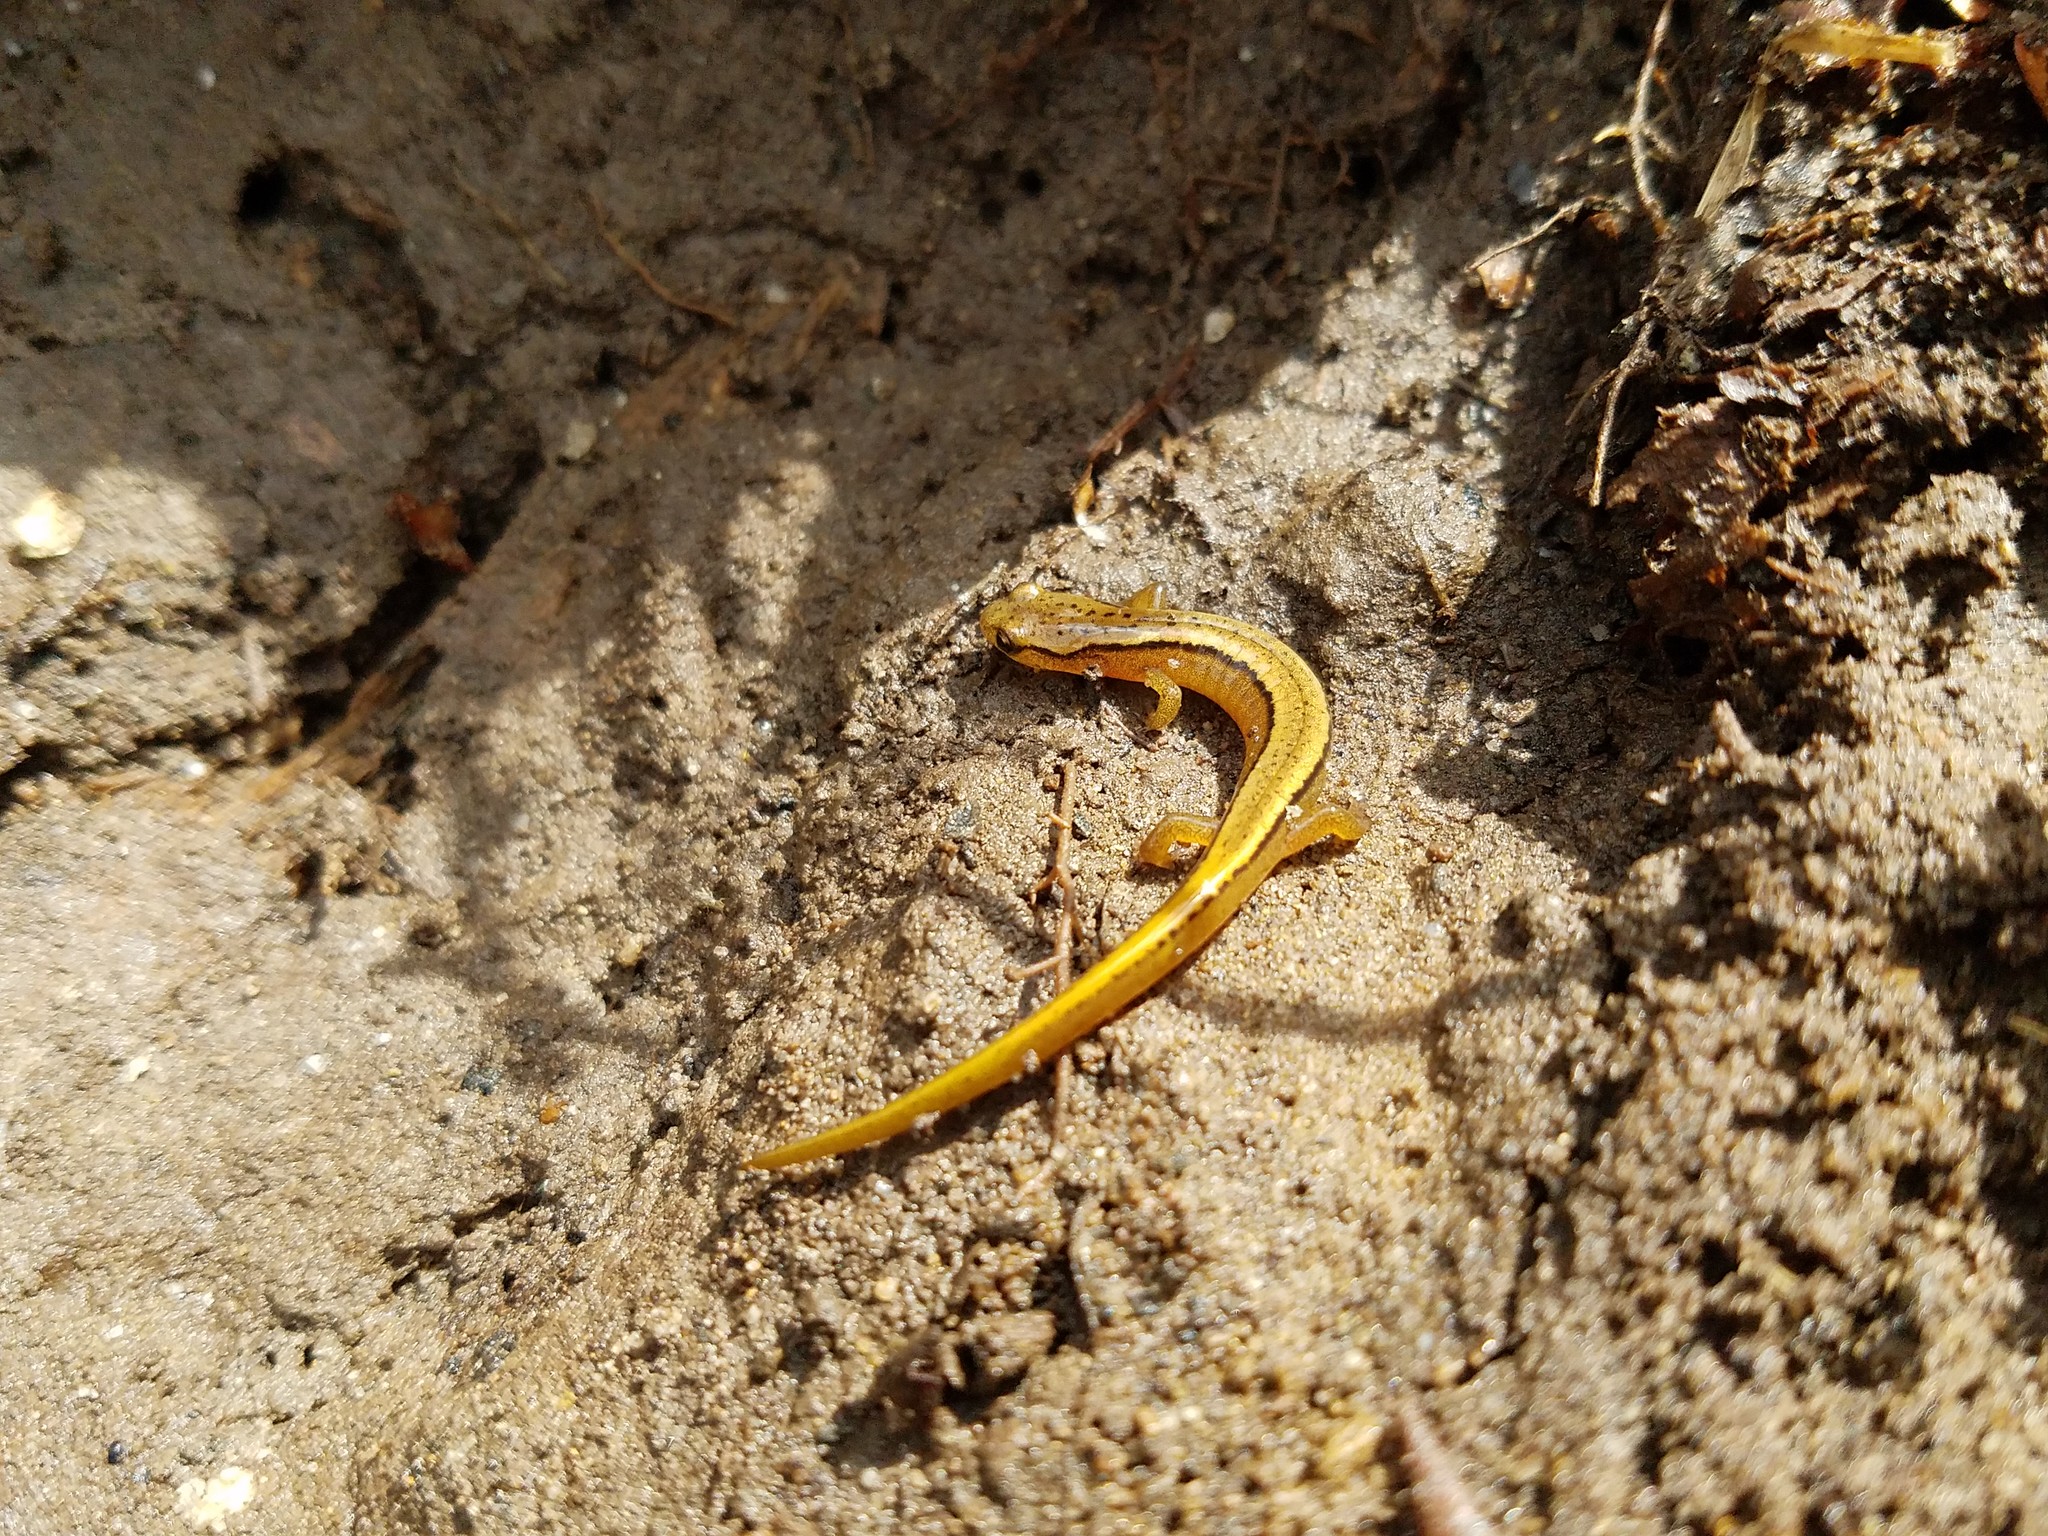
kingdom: Animalia
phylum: Chordata
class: Amphibia
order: Caudata
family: Plethodontidae
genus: Eurycea
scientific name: Eurycea bislineata
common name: Northern two-lined salamander
